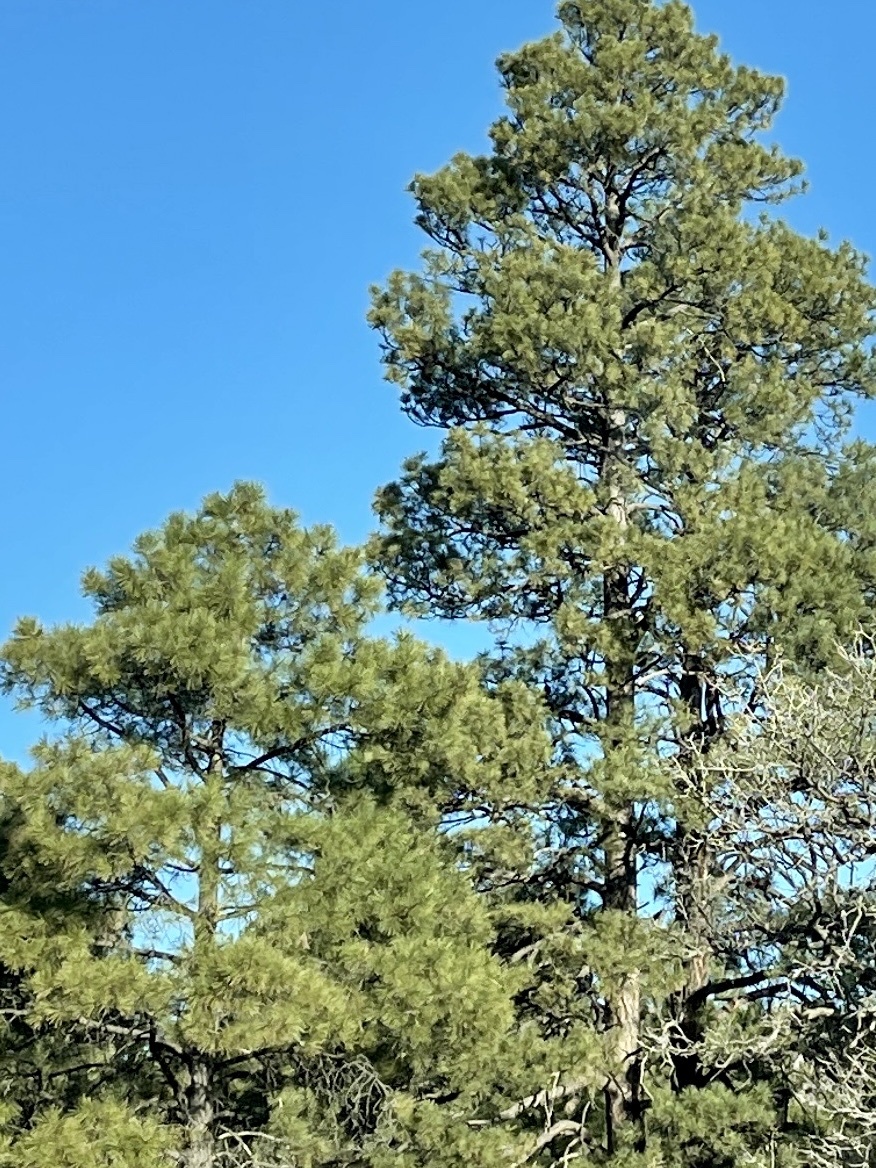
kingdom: Plantae
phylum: Tracheophyta
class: Pinopsida
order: Pinales
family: Pinaceae
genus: Pinus
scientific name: Pinus ponderosa
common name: Western yellow-pine
